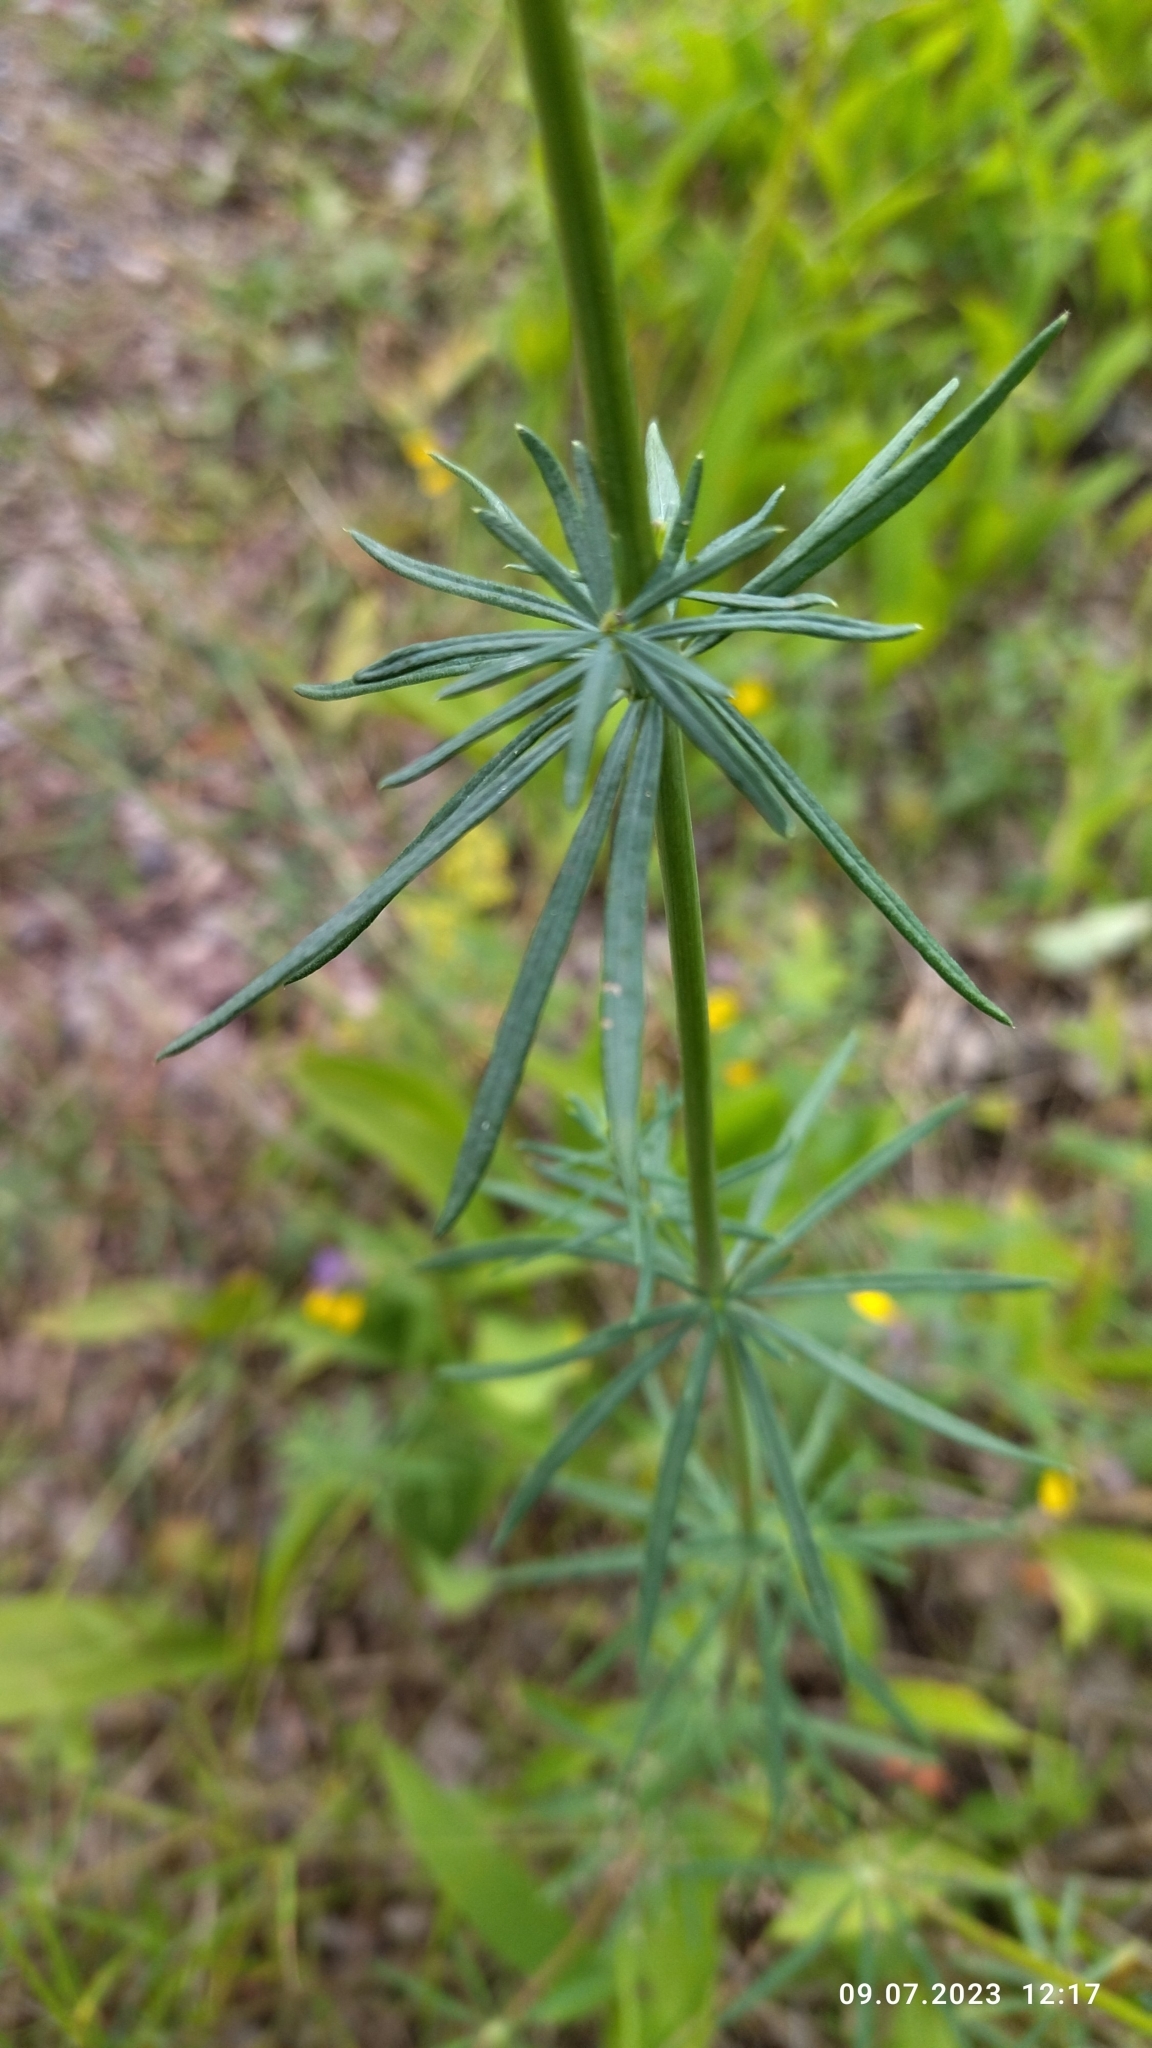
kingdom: Plantae
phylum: Tracheophyta
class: Magnoliopsida
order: Gentianales
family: Rubiaceae
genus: Galium
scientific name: Galium verum
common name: Lady's bedstraw
